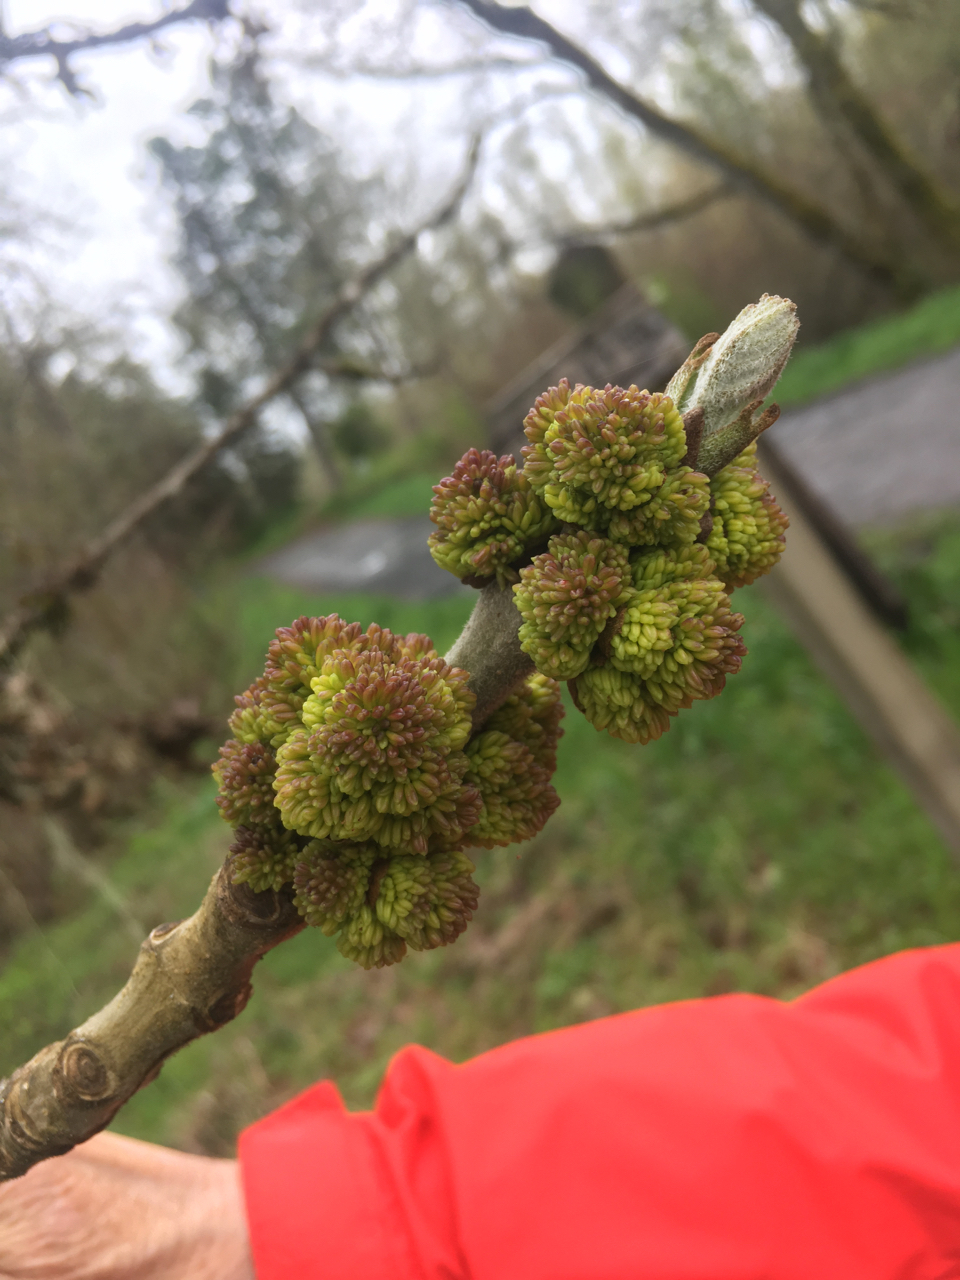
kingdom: Plantae
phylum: Tracheophyta
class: Magnoliopsida
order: Lamiales
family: Oleaceae
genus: Fraxinus
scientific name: Fraxinus latifolia
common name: Oregon ash
